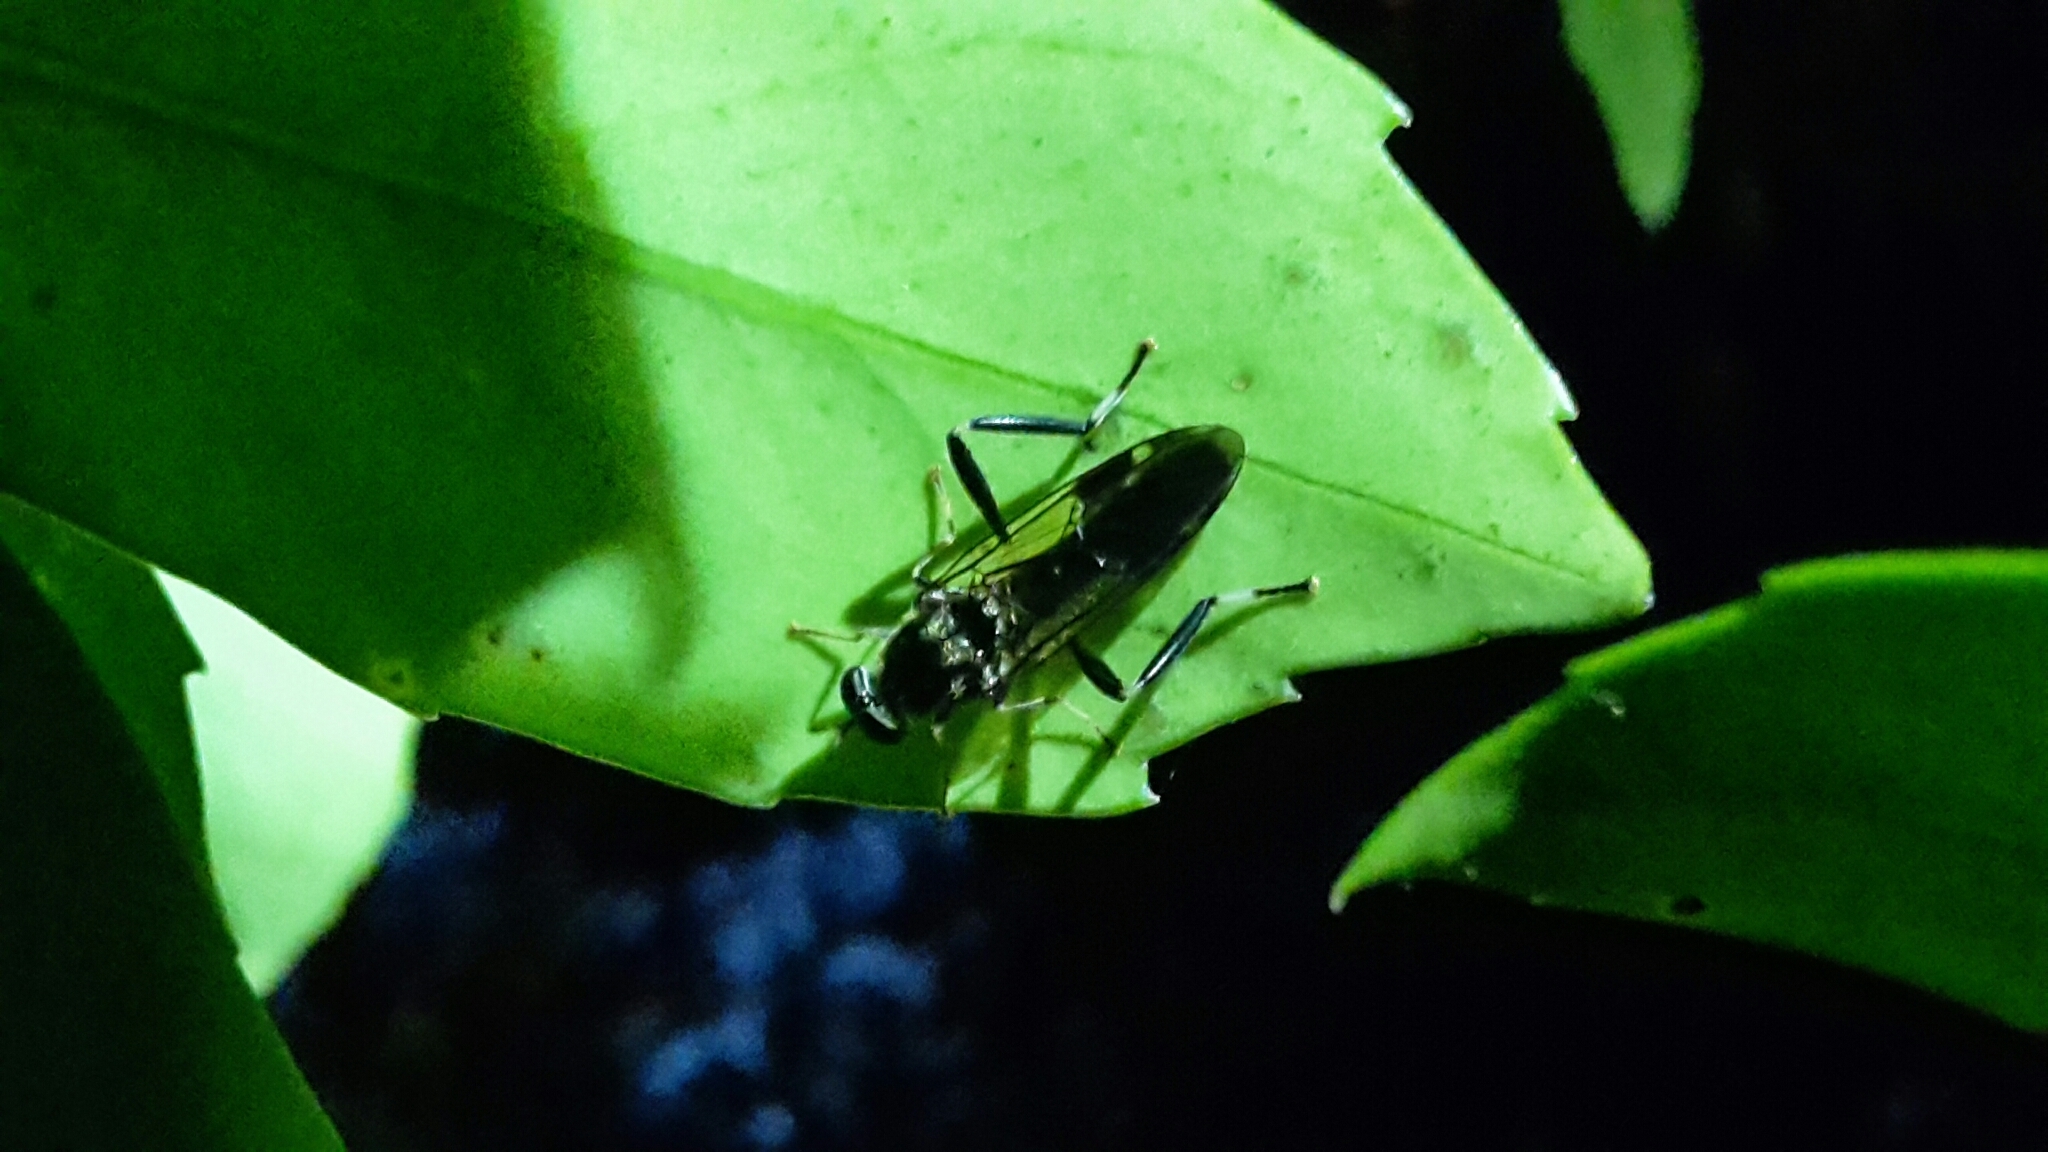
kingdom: Animalia
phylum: Arthropoda
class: Insecta
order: Diptera
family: Stratiomyidae
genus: Exaireta
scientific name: Exaireta spinigera
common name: Blue soldier fly
